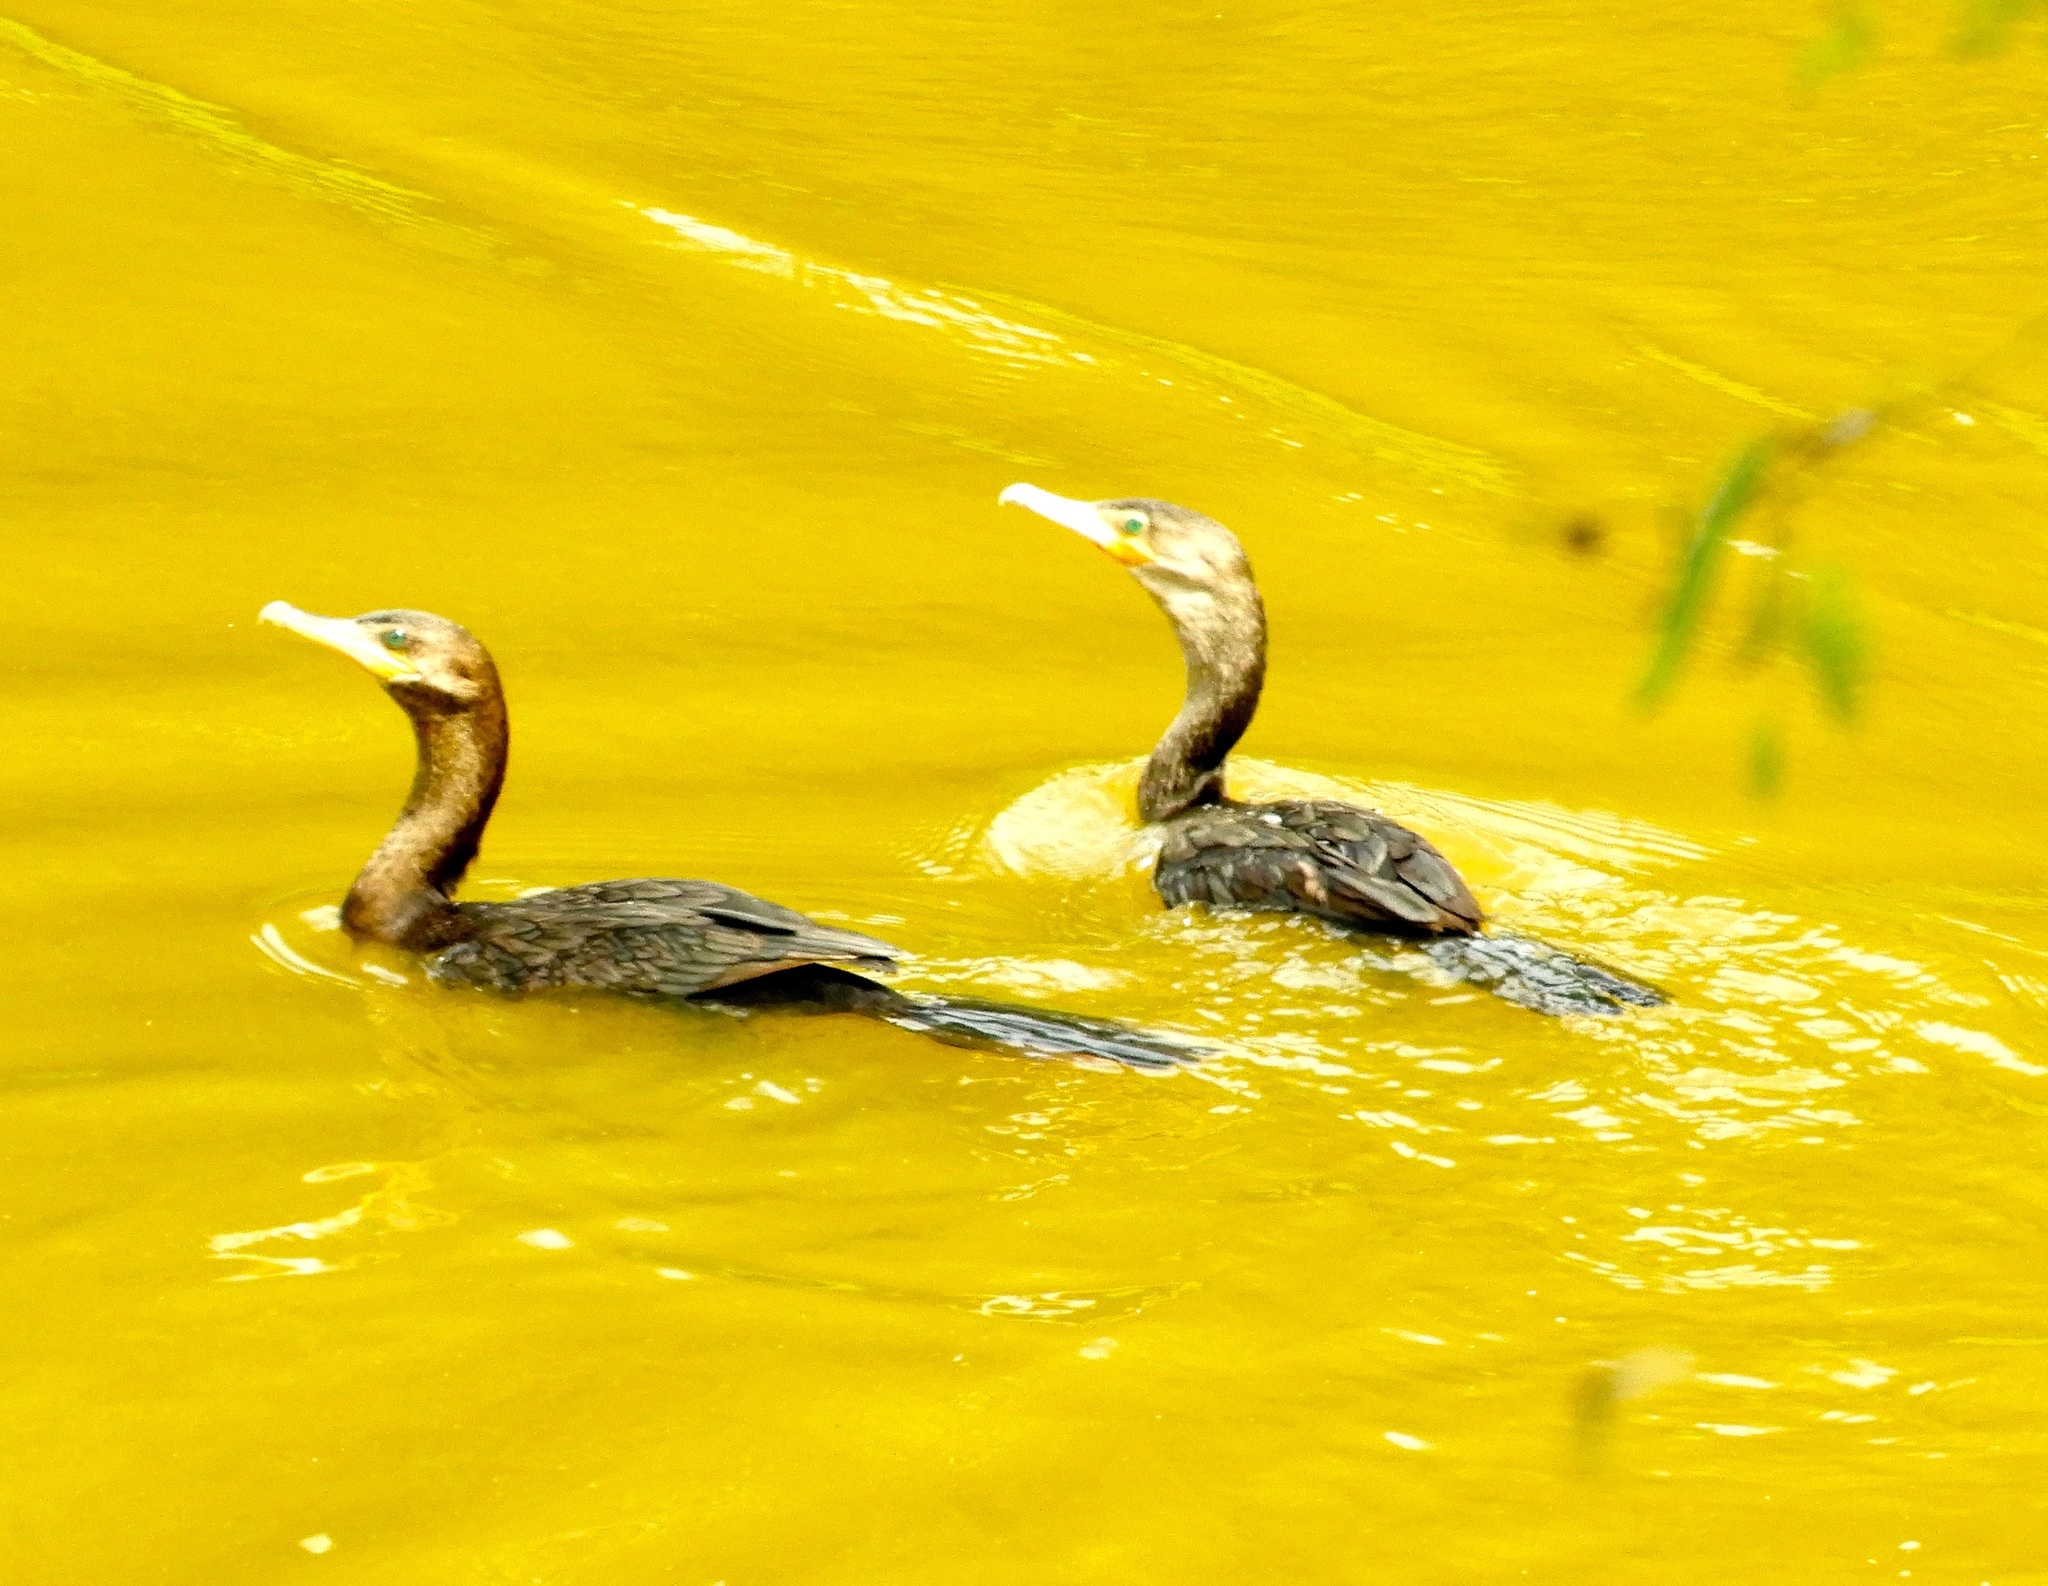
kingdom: Animalia
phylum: Chordata
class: Aves
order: Suliformes
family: Phalacrocoracidae
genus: Phalacrocorax
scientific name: Phalacrocorax brasilianus
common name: Neotropic cormorant
